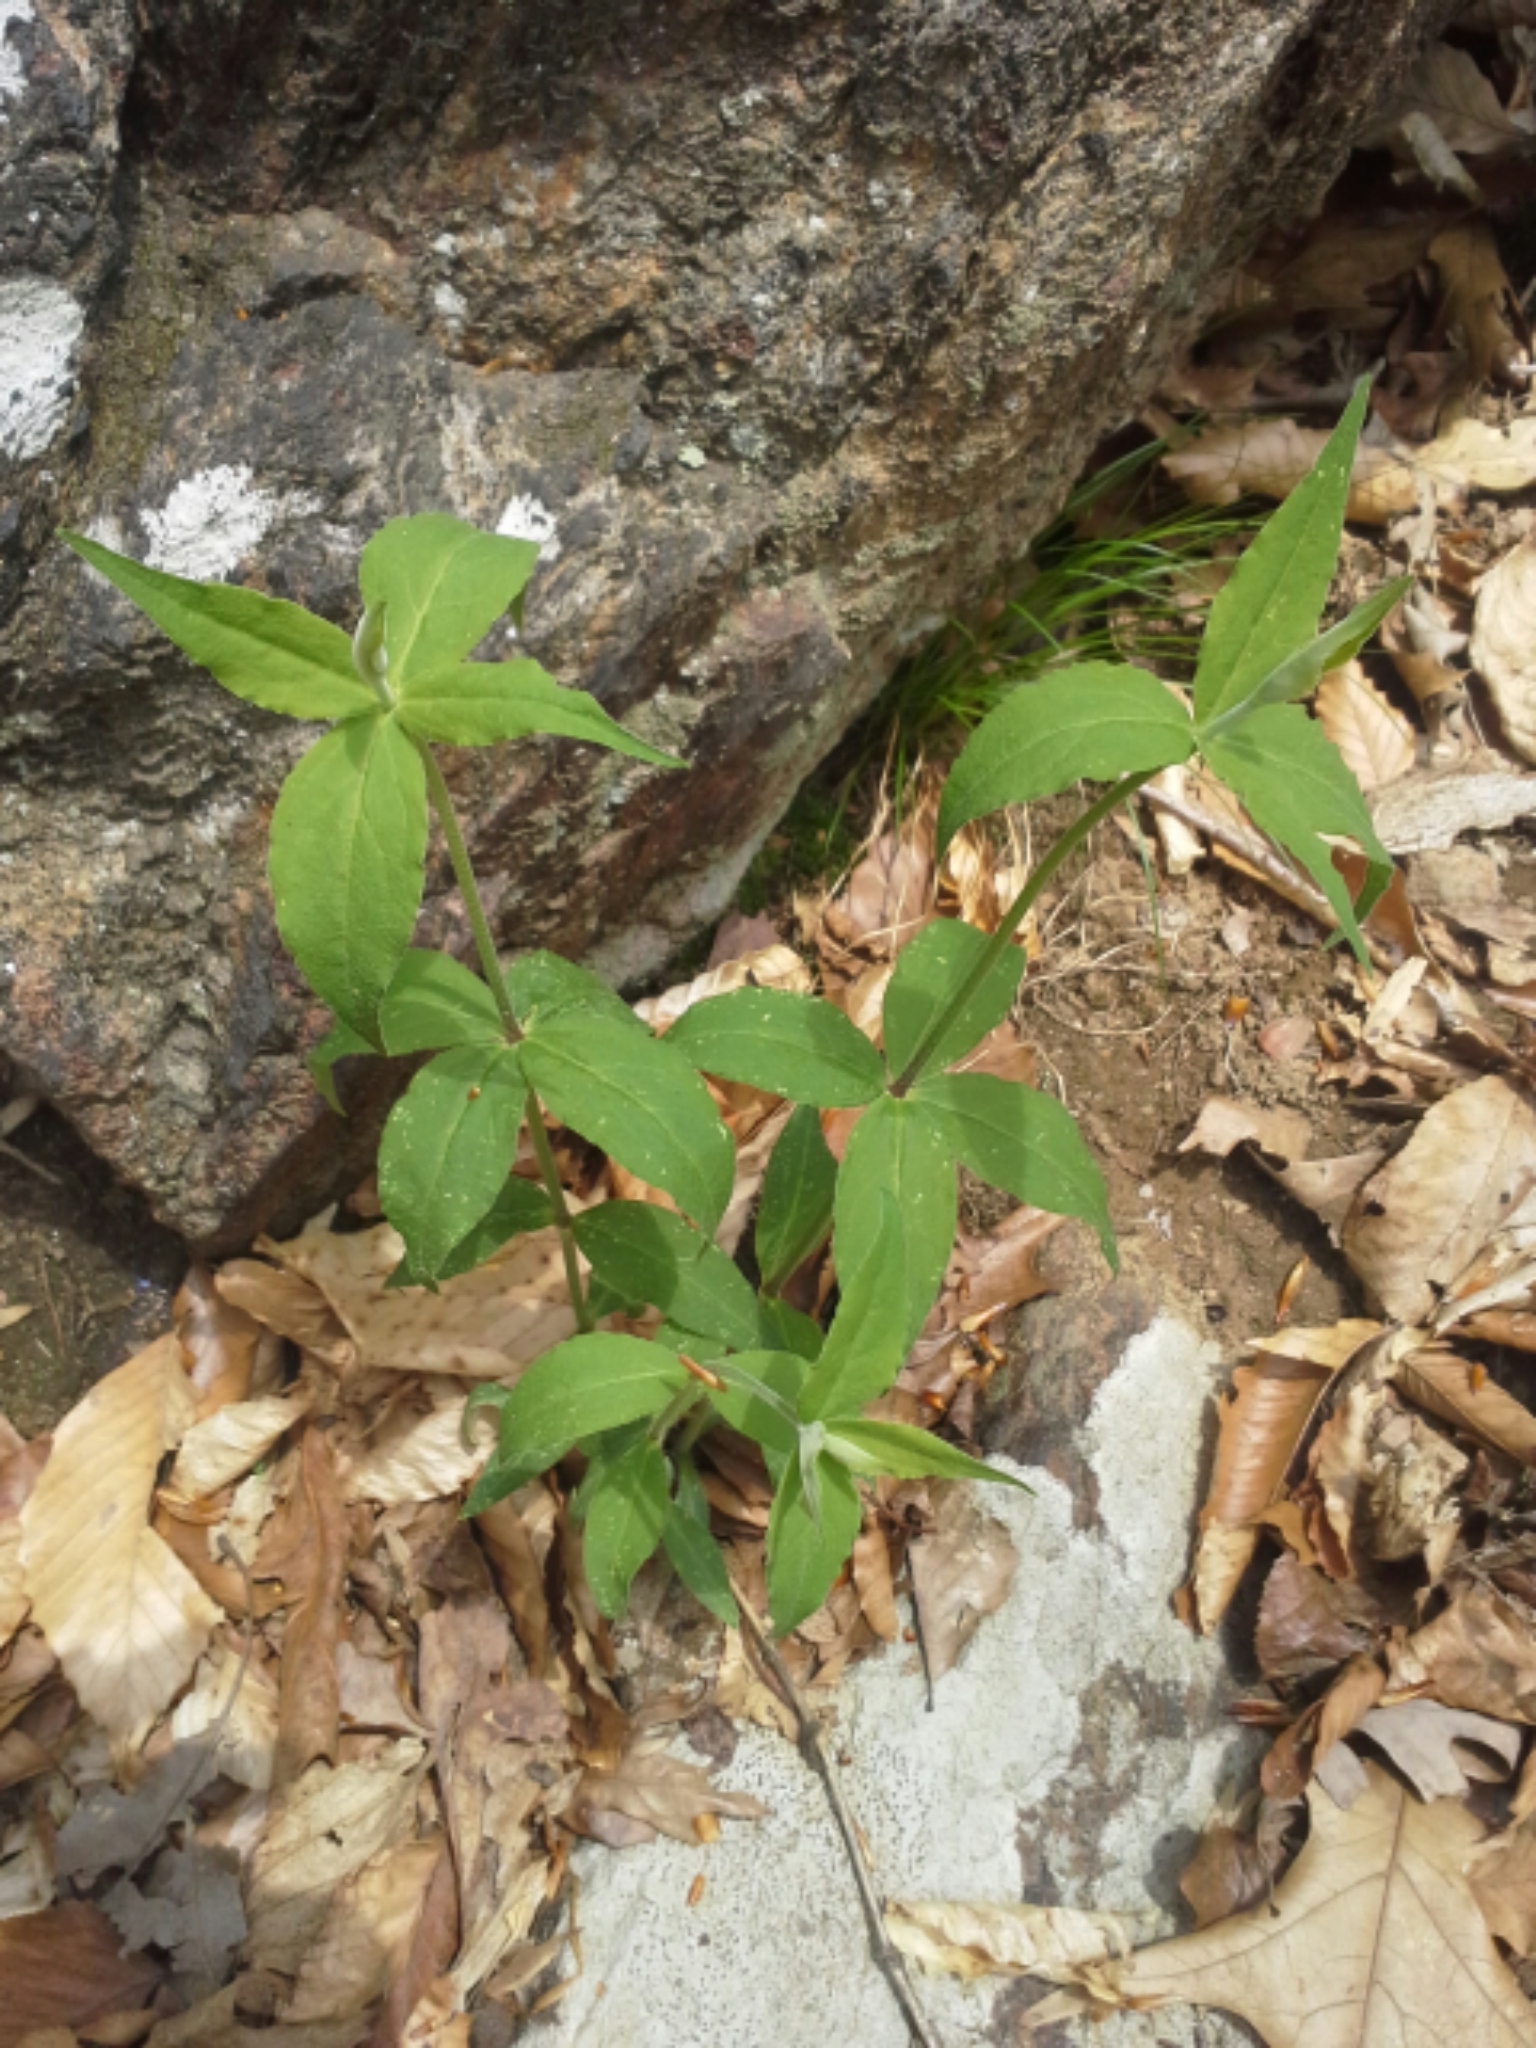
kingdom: Plantae
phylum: Tracheophyta
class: Magnoliopsida
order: Caryophyllales
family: Caryophyllaceae
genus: Silene
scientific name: Silene stellata
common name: Starry campion
